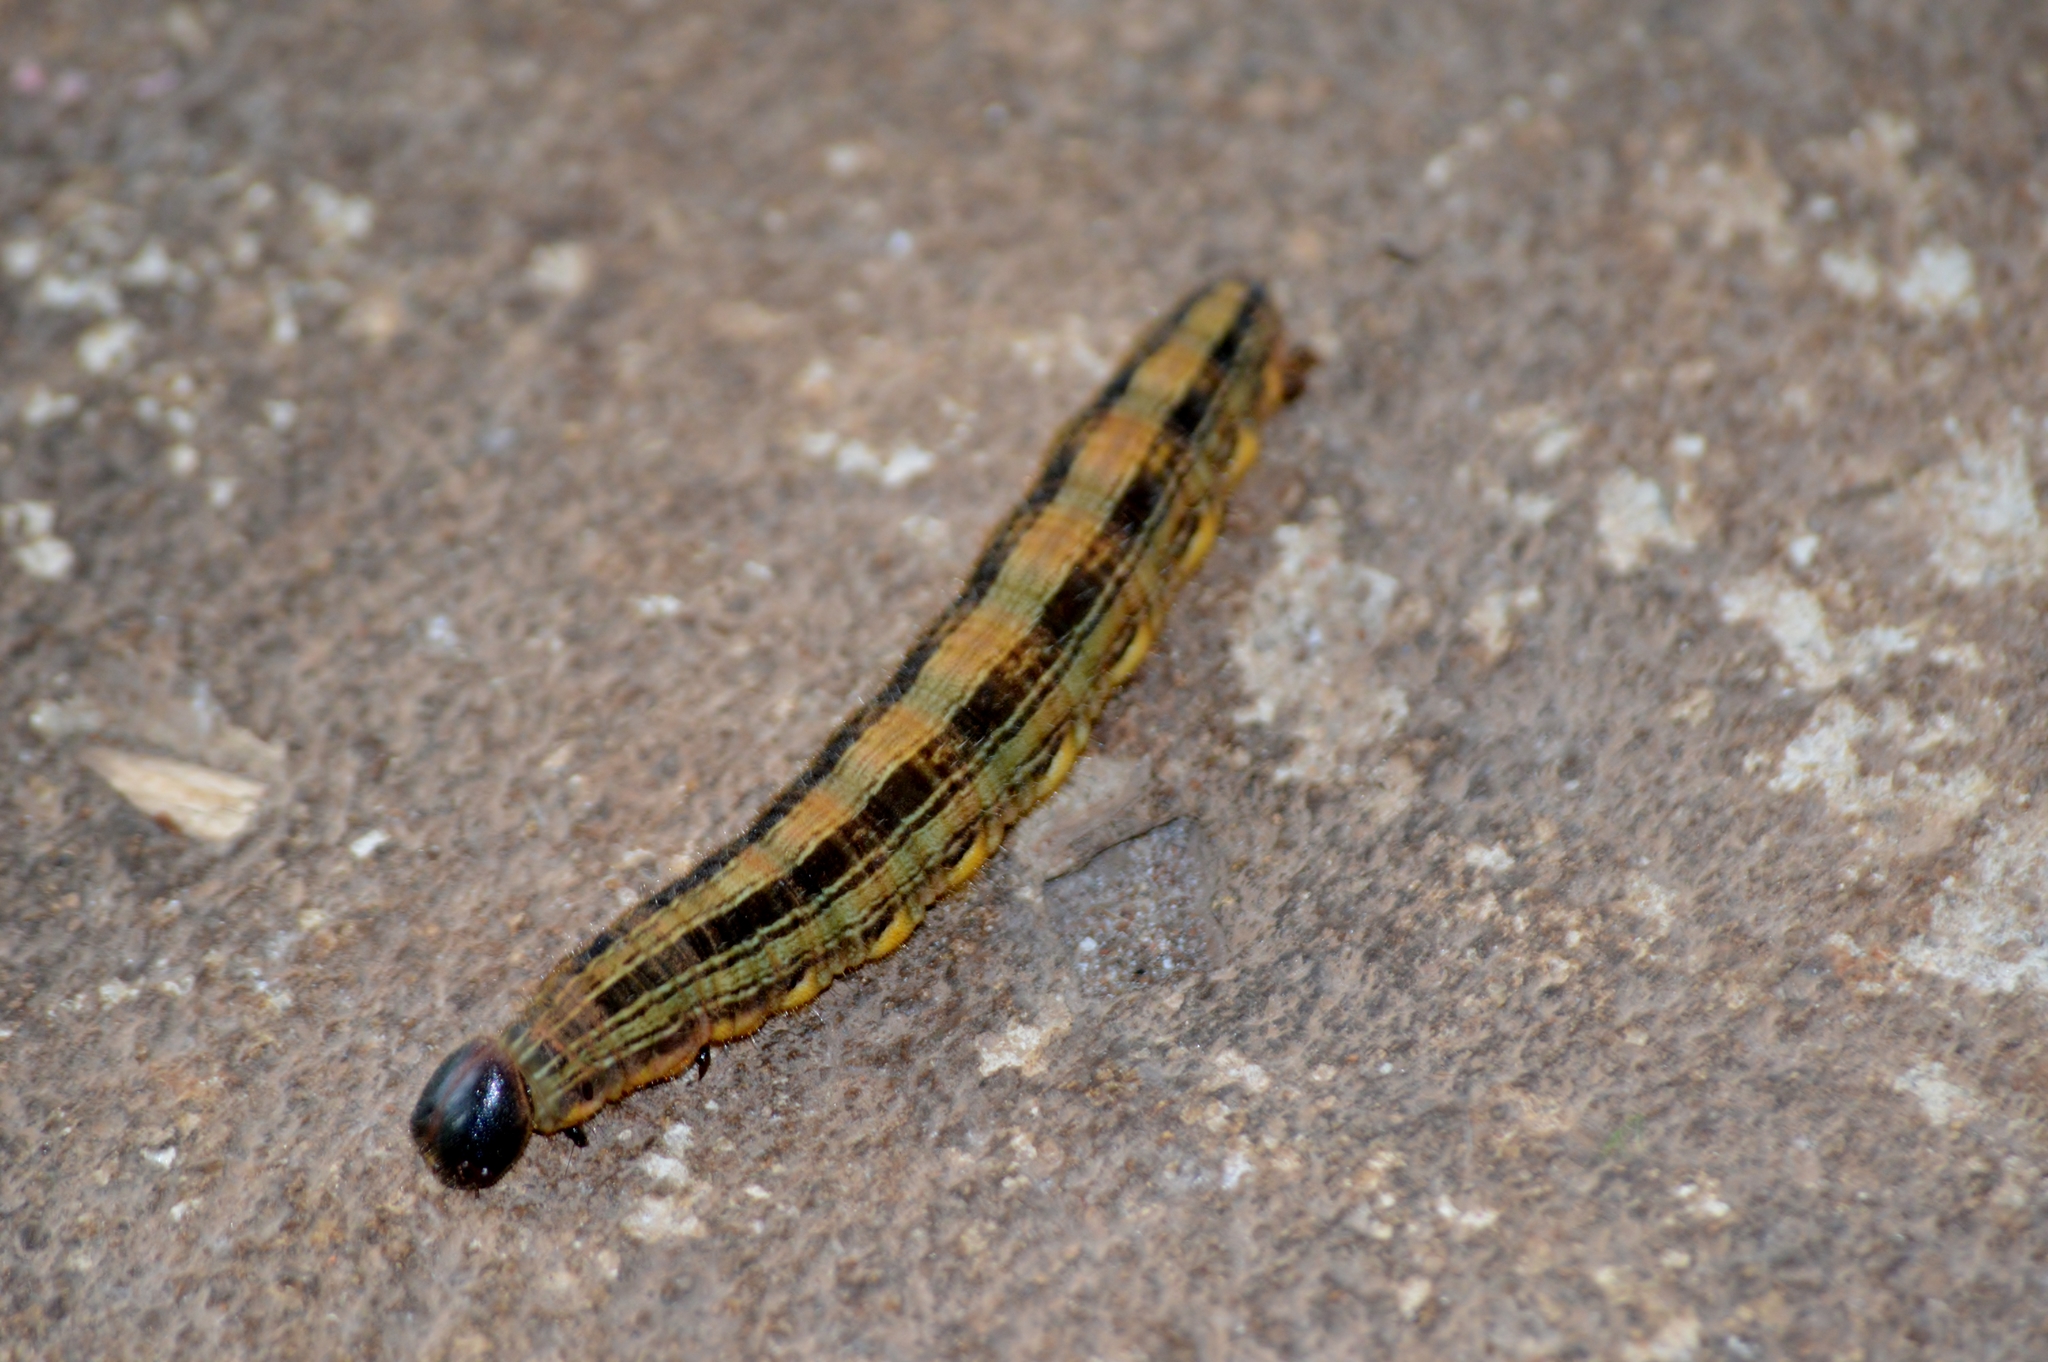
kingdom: Animalia
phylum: Arthropoda
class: Insecta
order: Lepidoptera
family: Nymphalidae
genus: Brassolis
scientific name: Brassolis sophorae
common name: Coconut caterpillar
